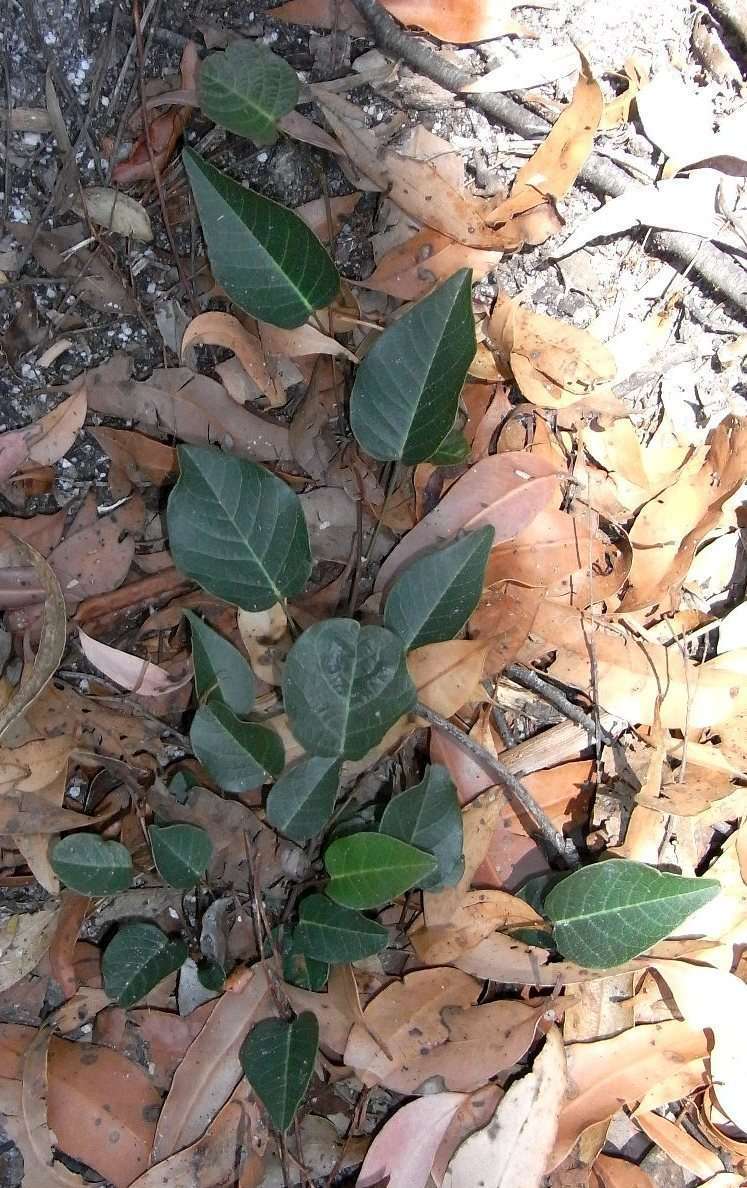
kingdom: Plantae
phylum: Tracheophyta
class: Magnoliopsida
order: Fabales
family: Fabaceae
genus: Hardenbergia
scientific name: Hardenbergia violacea
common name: Coral-pea
